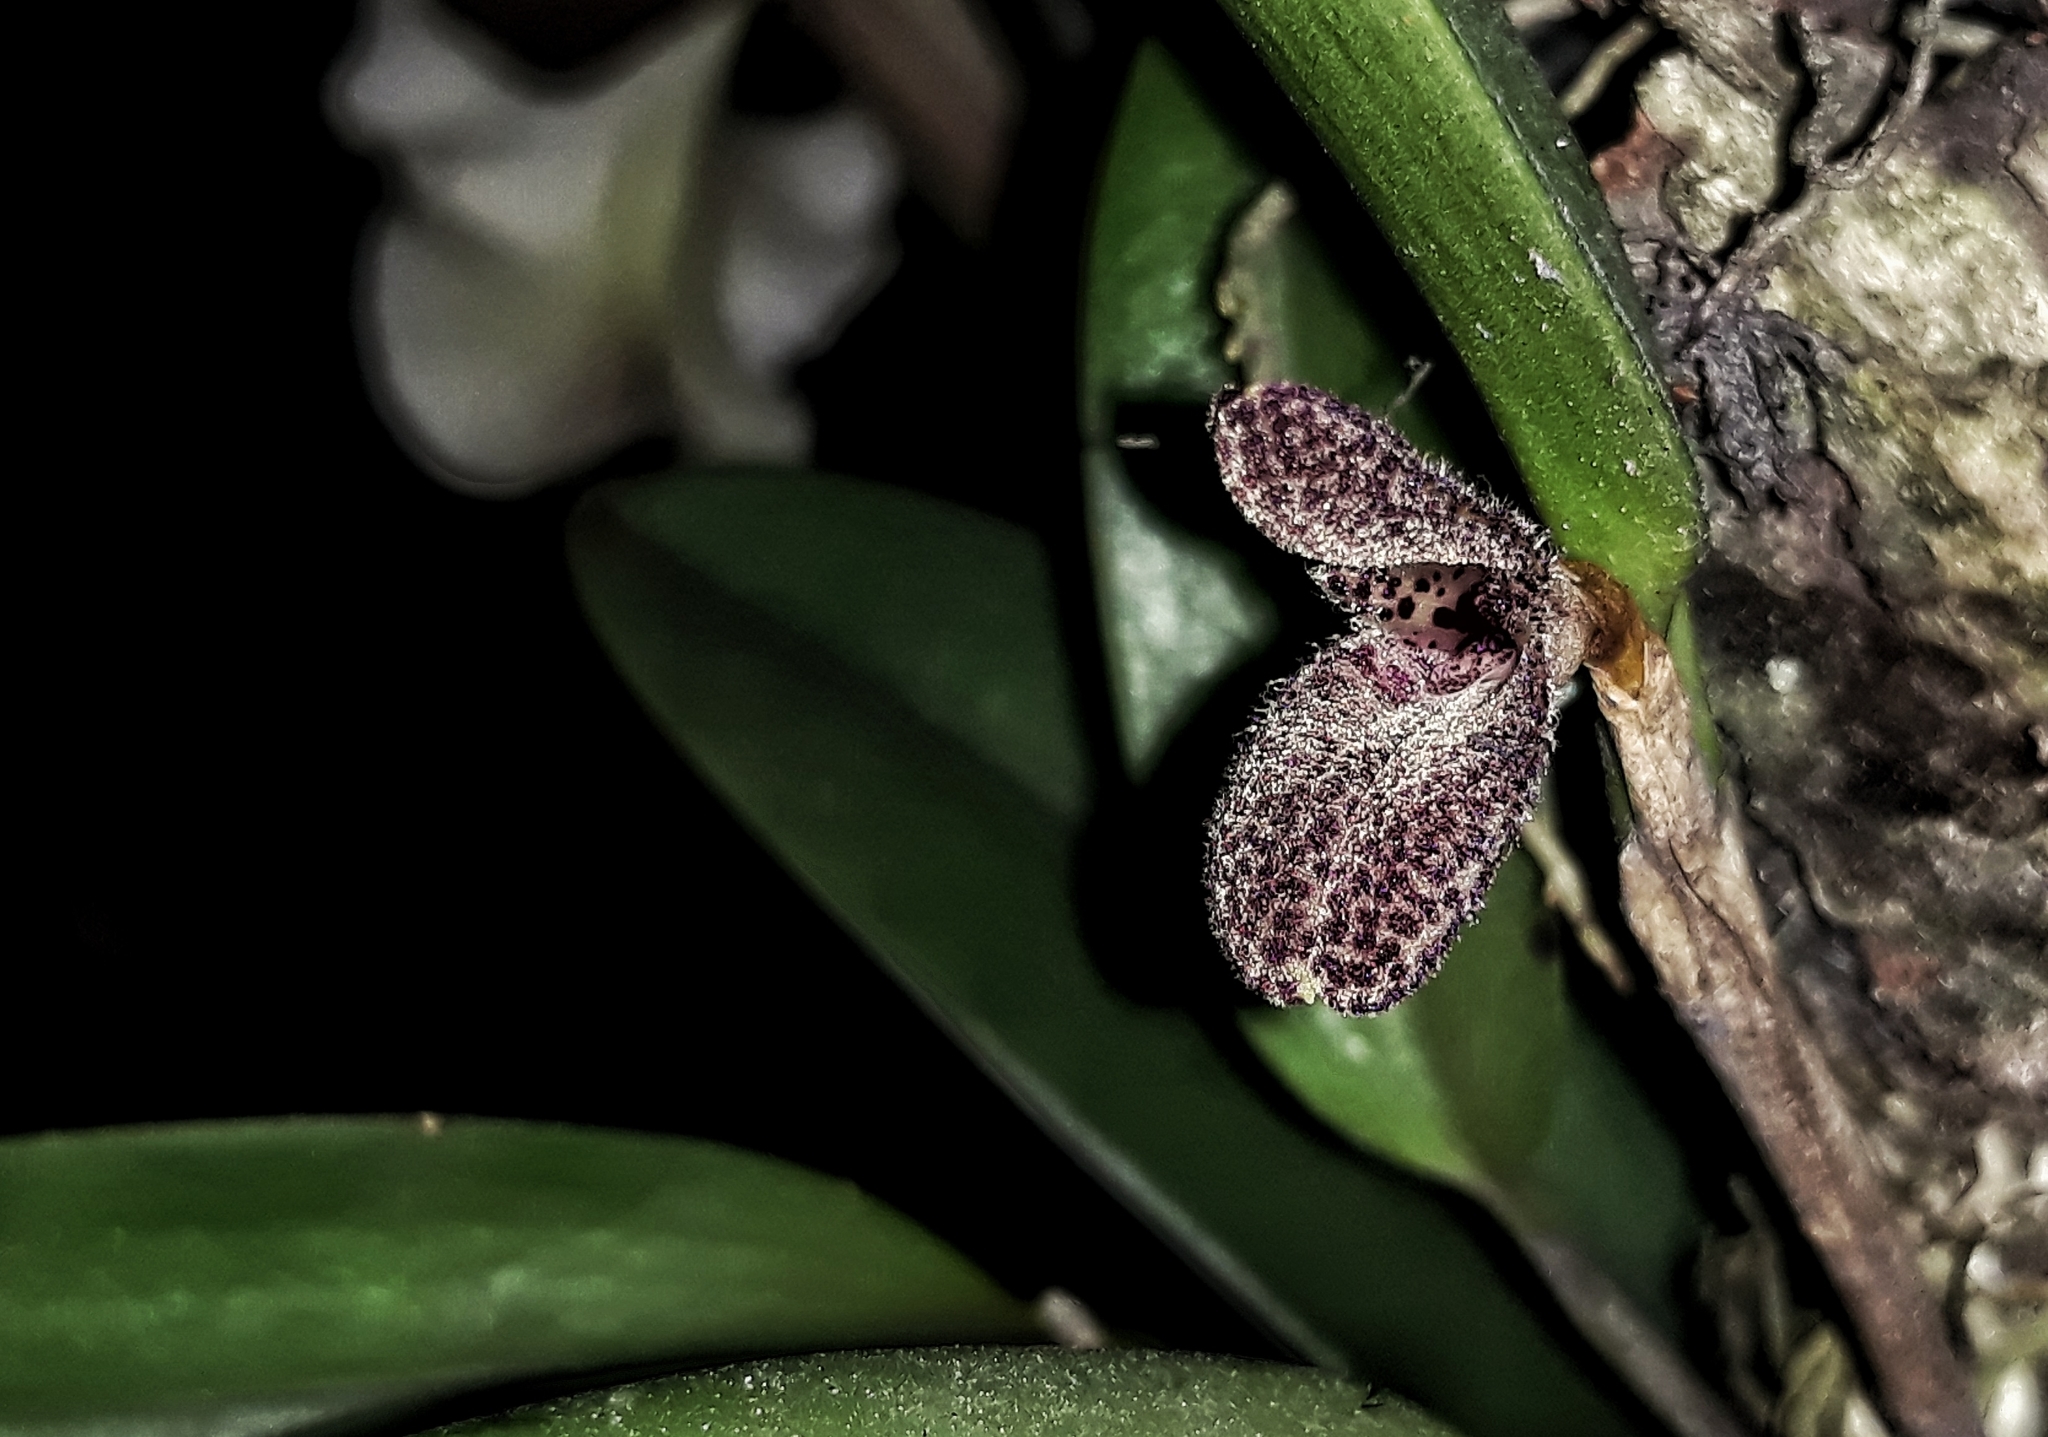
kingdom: Plantae
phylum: Tracheophyta
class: Liliopsida
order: Asparagales
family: Orchidaceae
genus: Restrepiella
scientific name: Restrepiella ophiocephala
